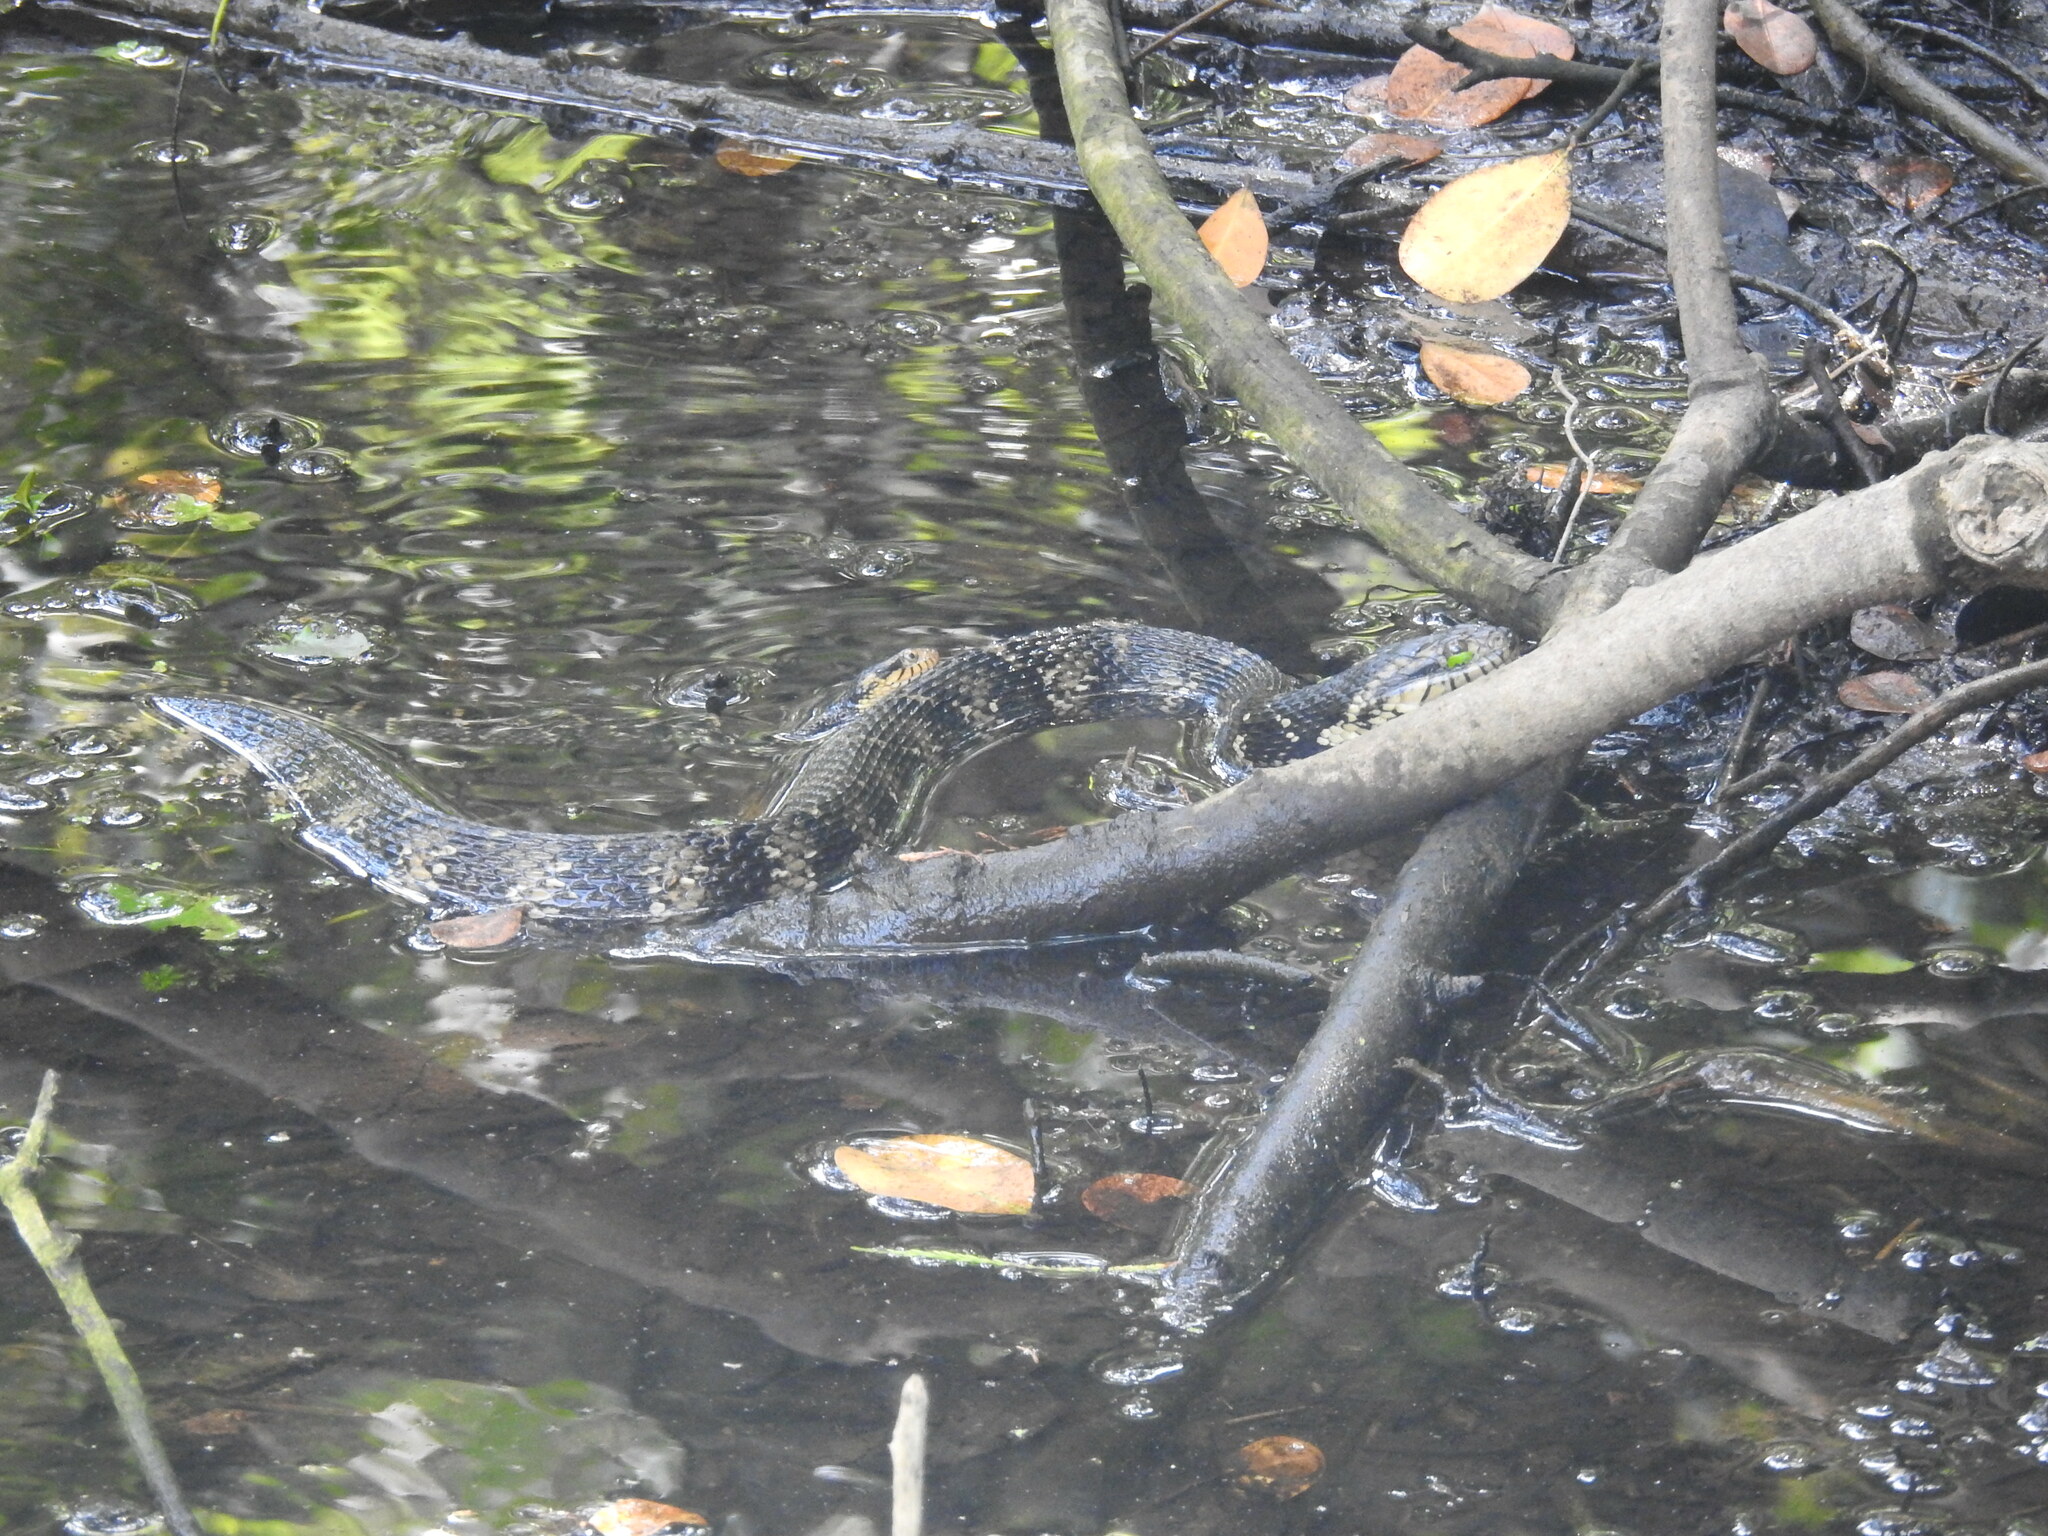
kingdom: Animalia
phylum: Chordata
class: Squamata
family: Colubridae
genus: Nerodia
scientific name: Nerodia fasciata
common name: Southern water snake
